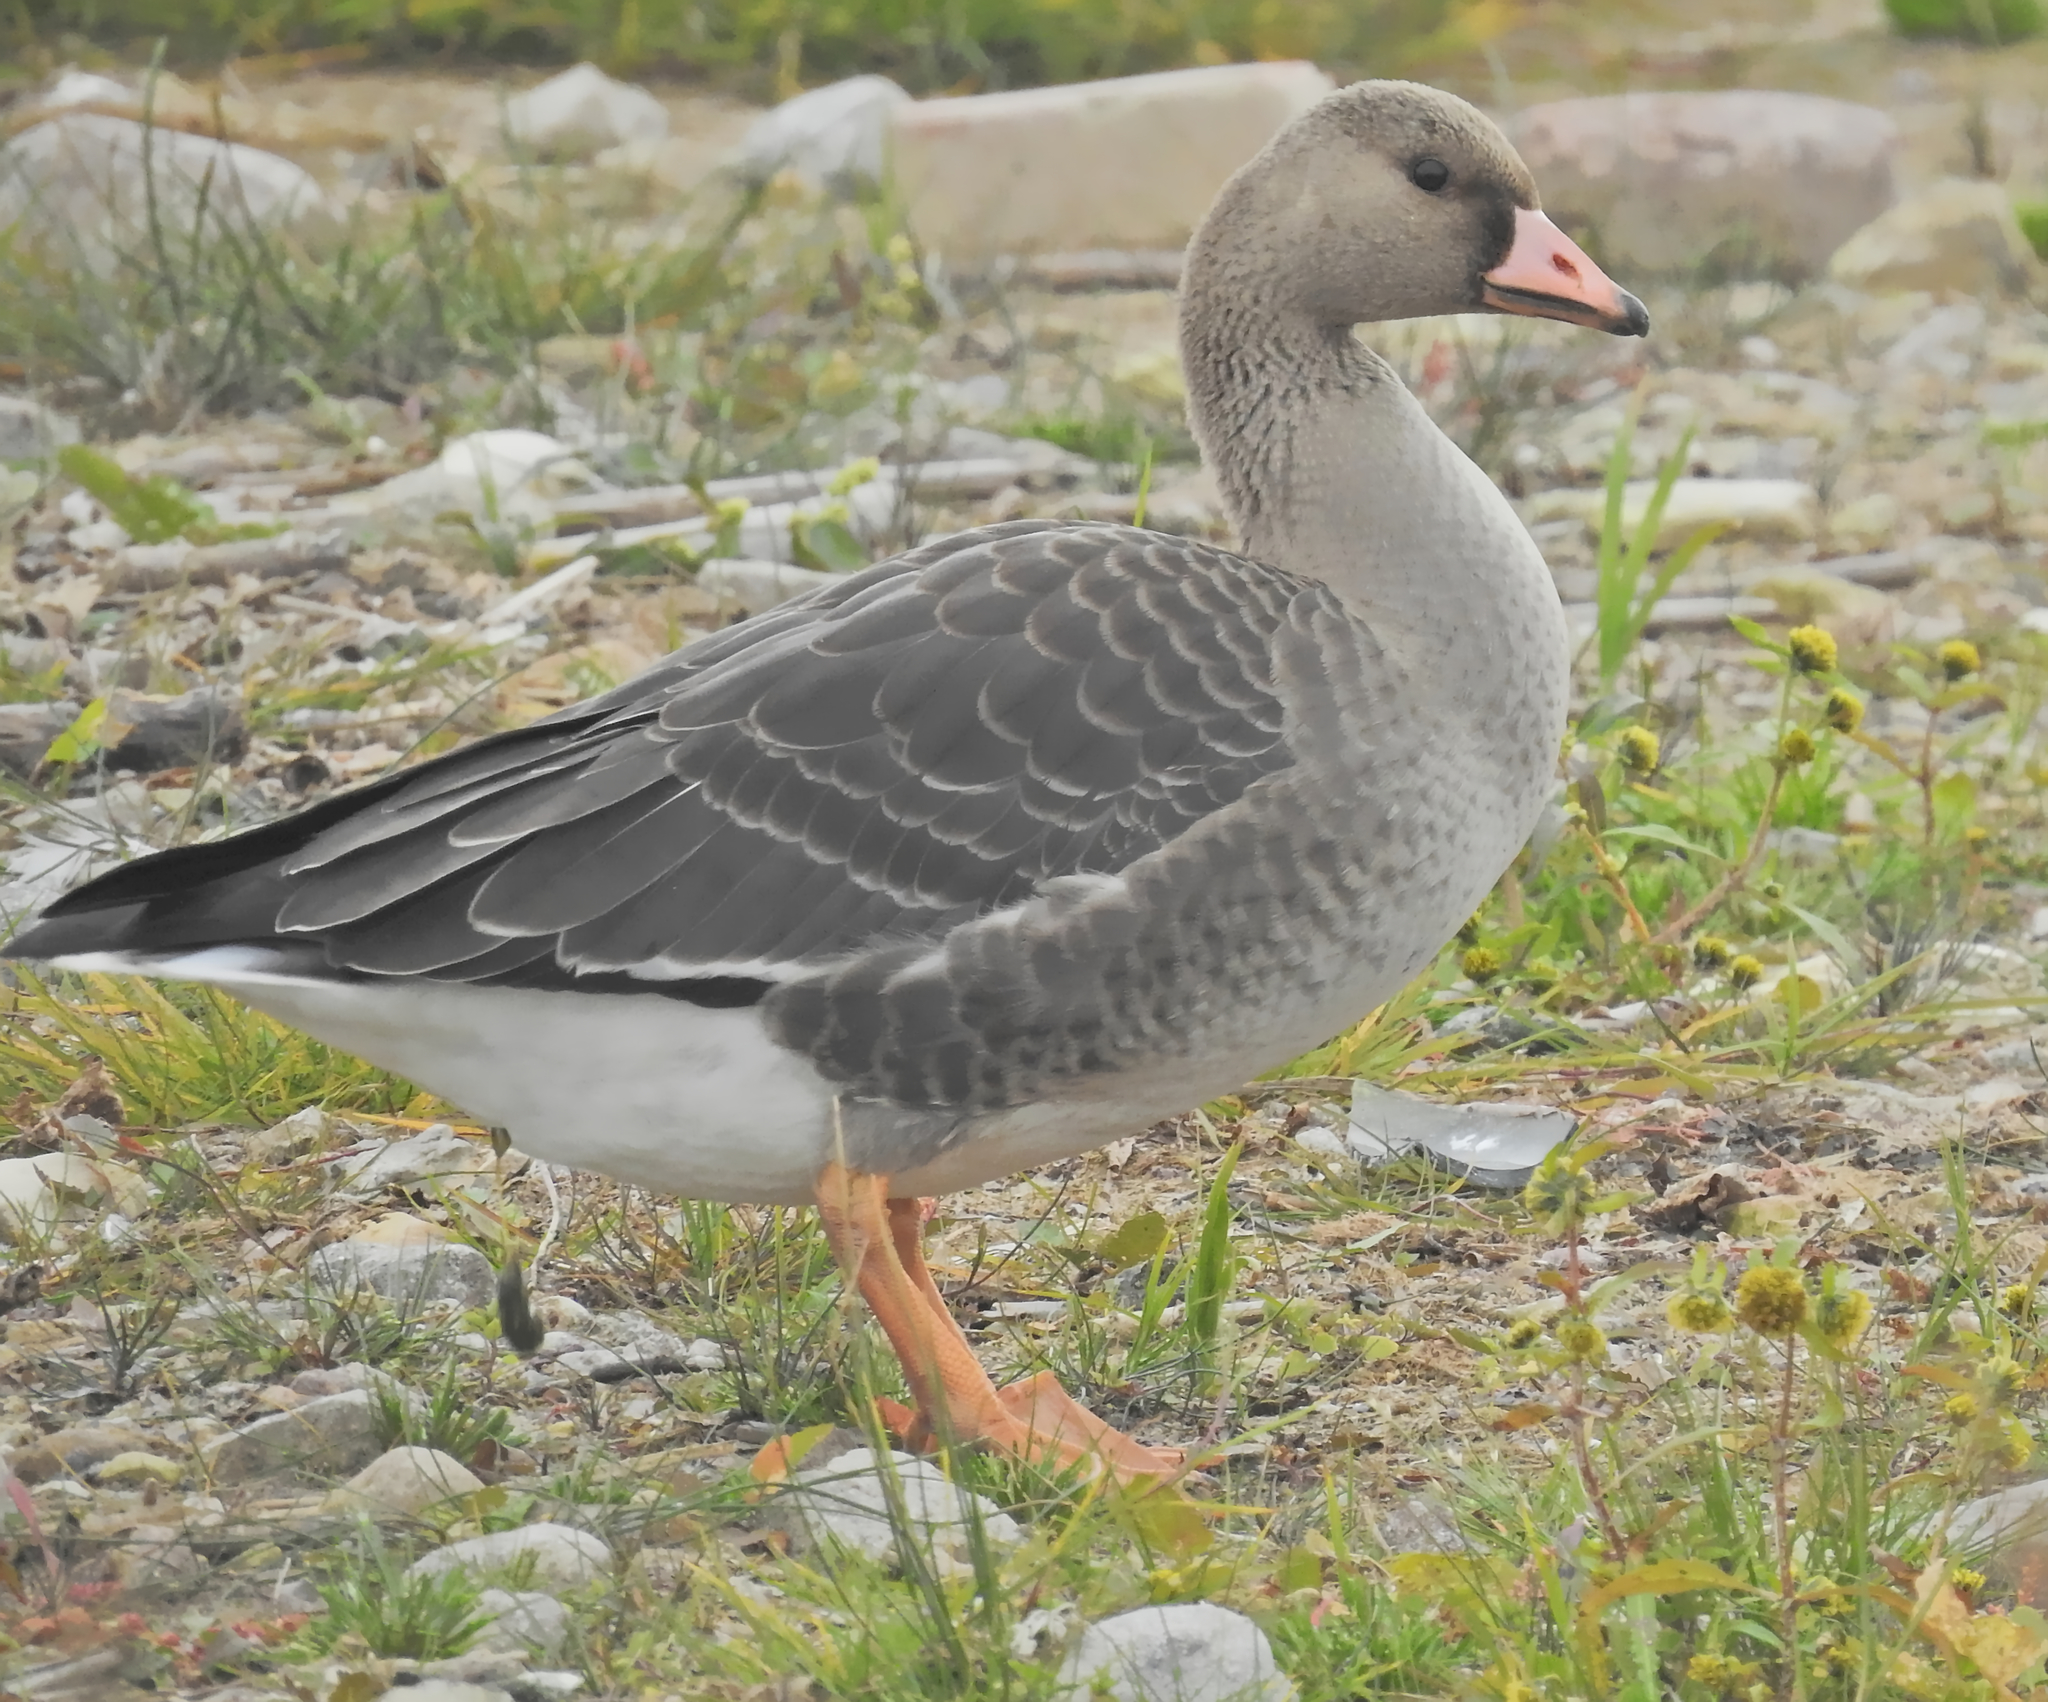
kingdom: Animalia
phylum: Chordata
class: Aves
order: Anseriformes
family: Anatidae
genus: Anser
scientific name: Anser albifrons
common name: Greater white-fronted goose
